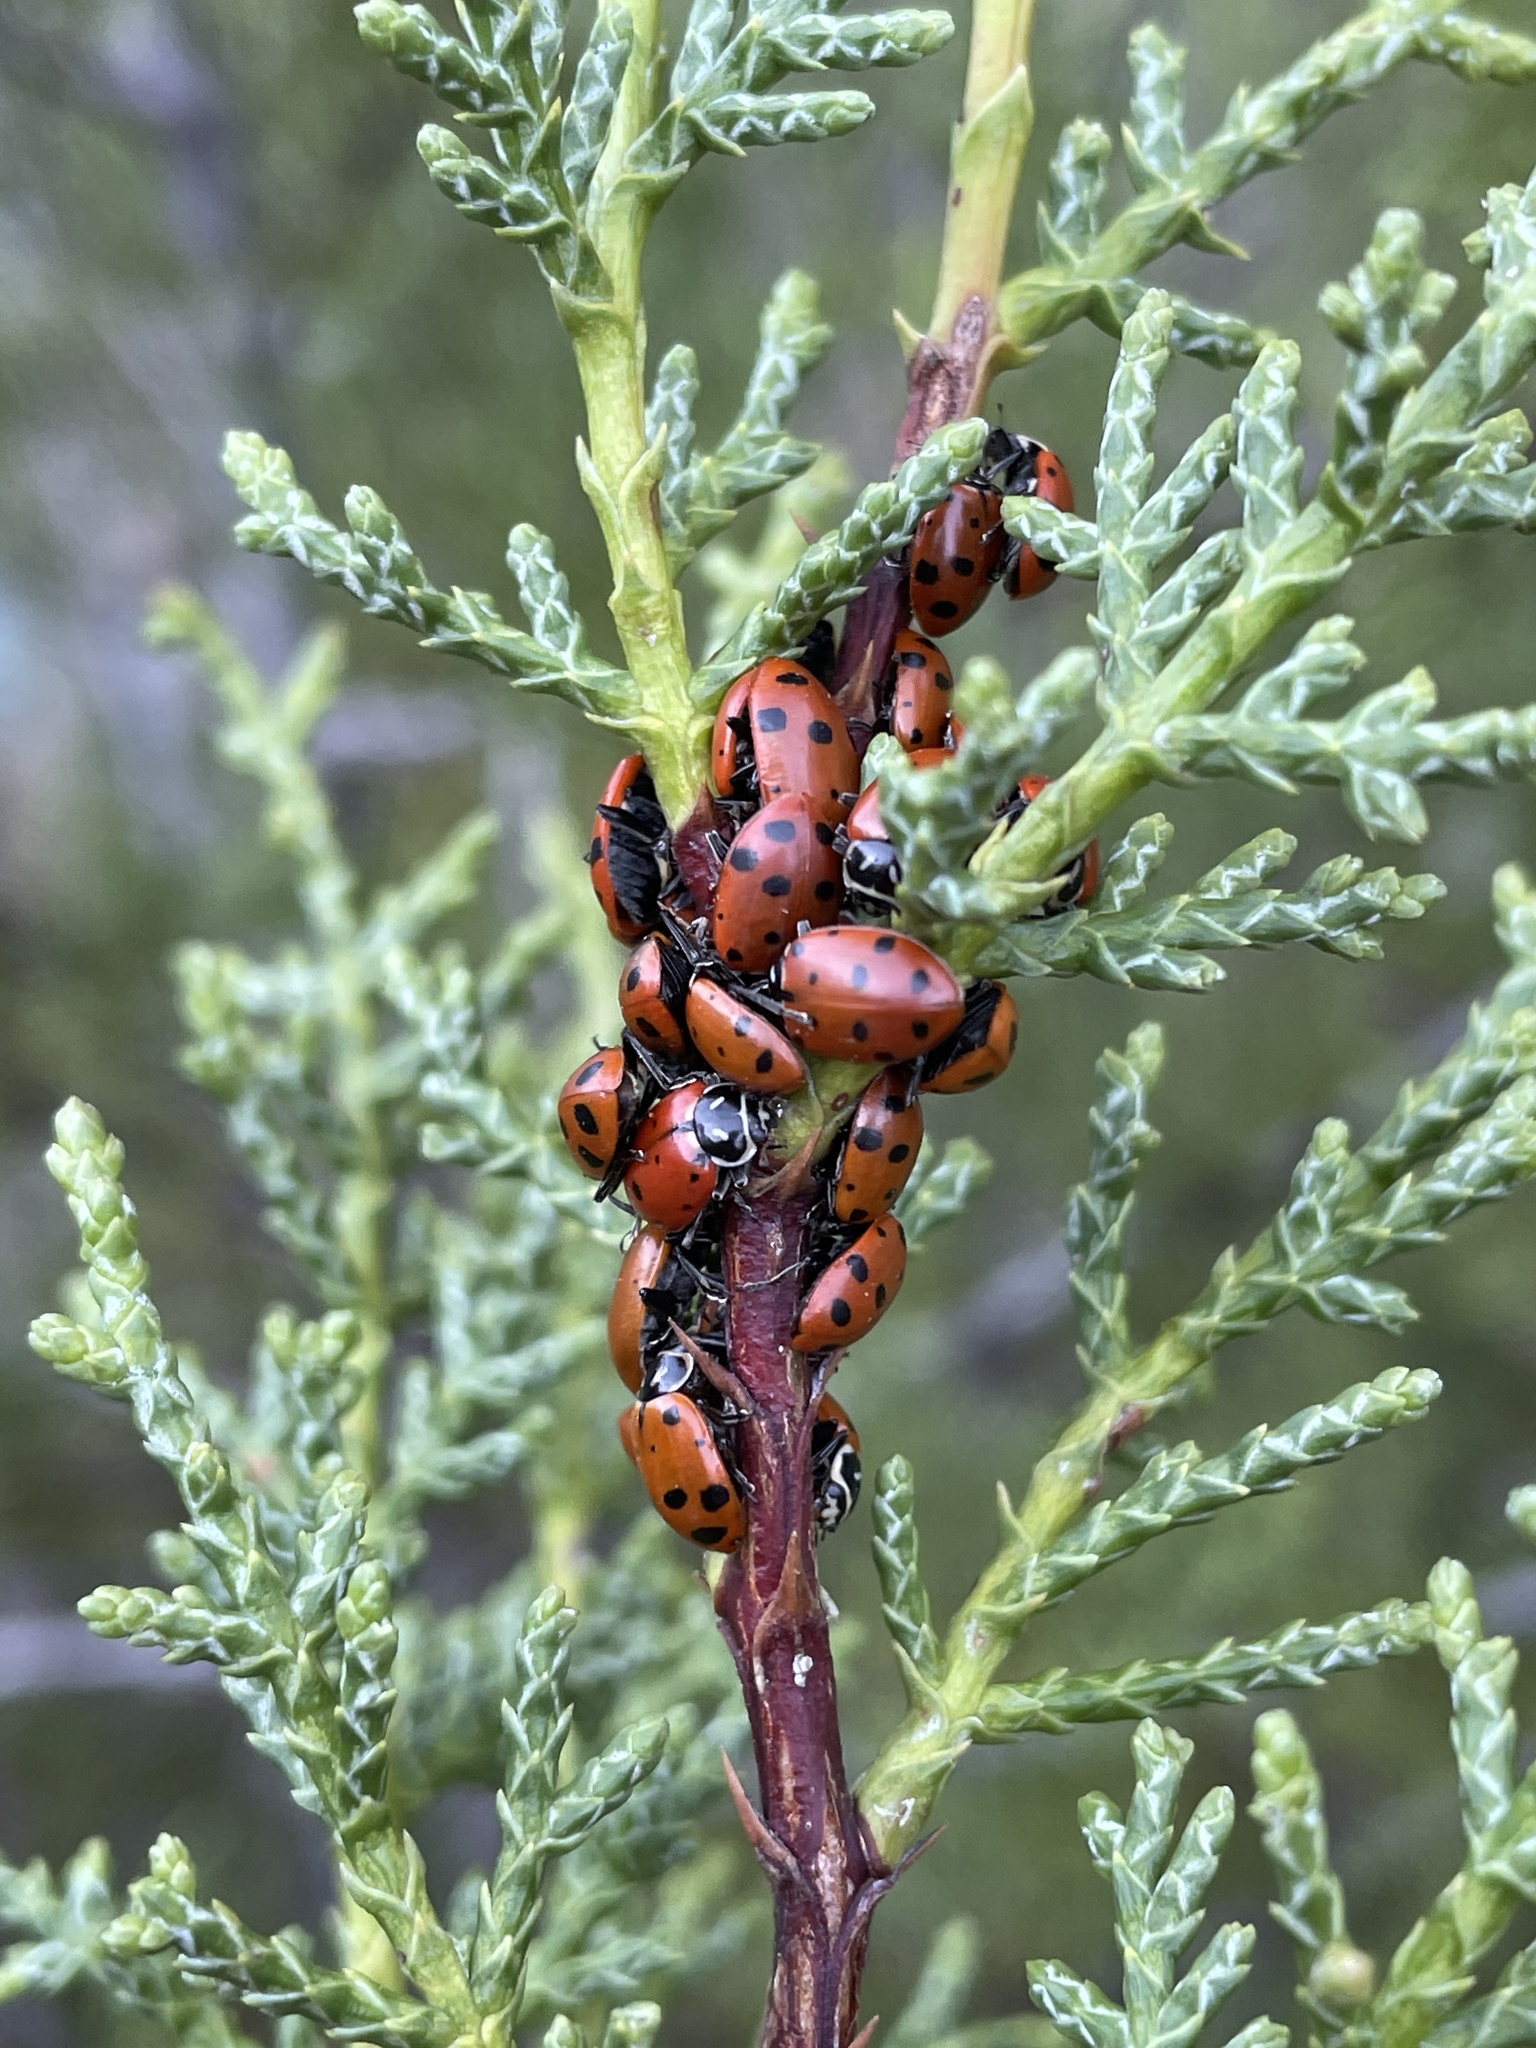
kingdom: Animalia
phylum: Arthropoda
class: Insecta
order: Coleoptera
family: Coccinellidae
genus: Hippodamia
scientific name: Hippodamia convergens
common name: Convergent lady beetle
